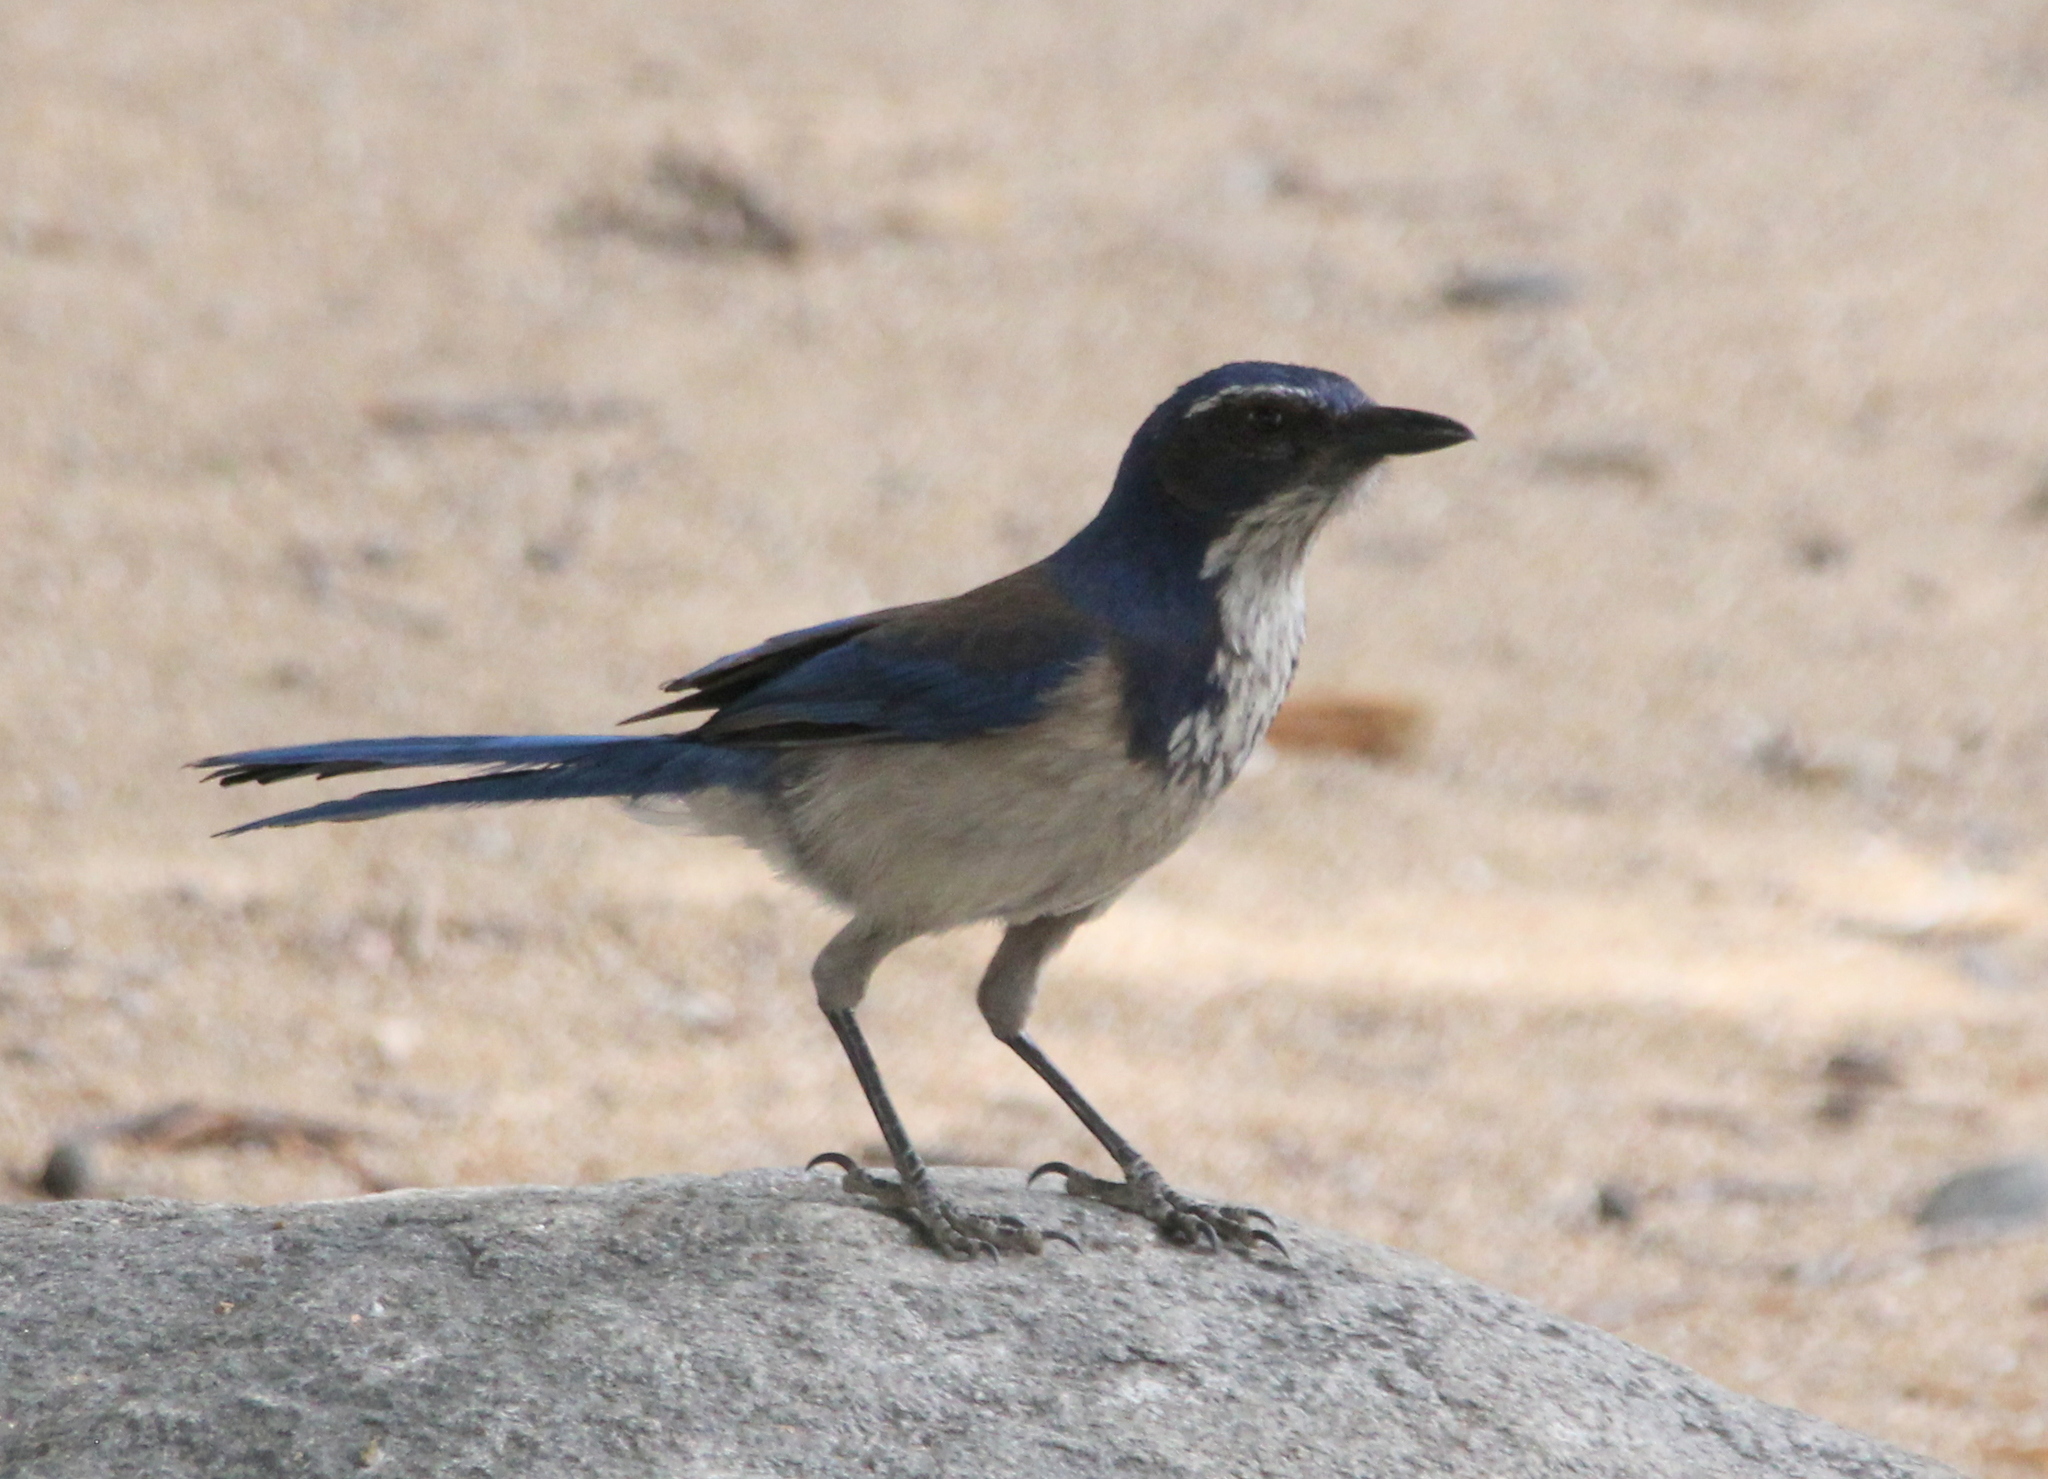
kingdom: Animalia
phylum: Chordata
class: Aves
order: Passeriformes
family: Corvidae
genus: Aphelocoma
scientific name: Aphelocoma californica
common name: California scrub-jay
